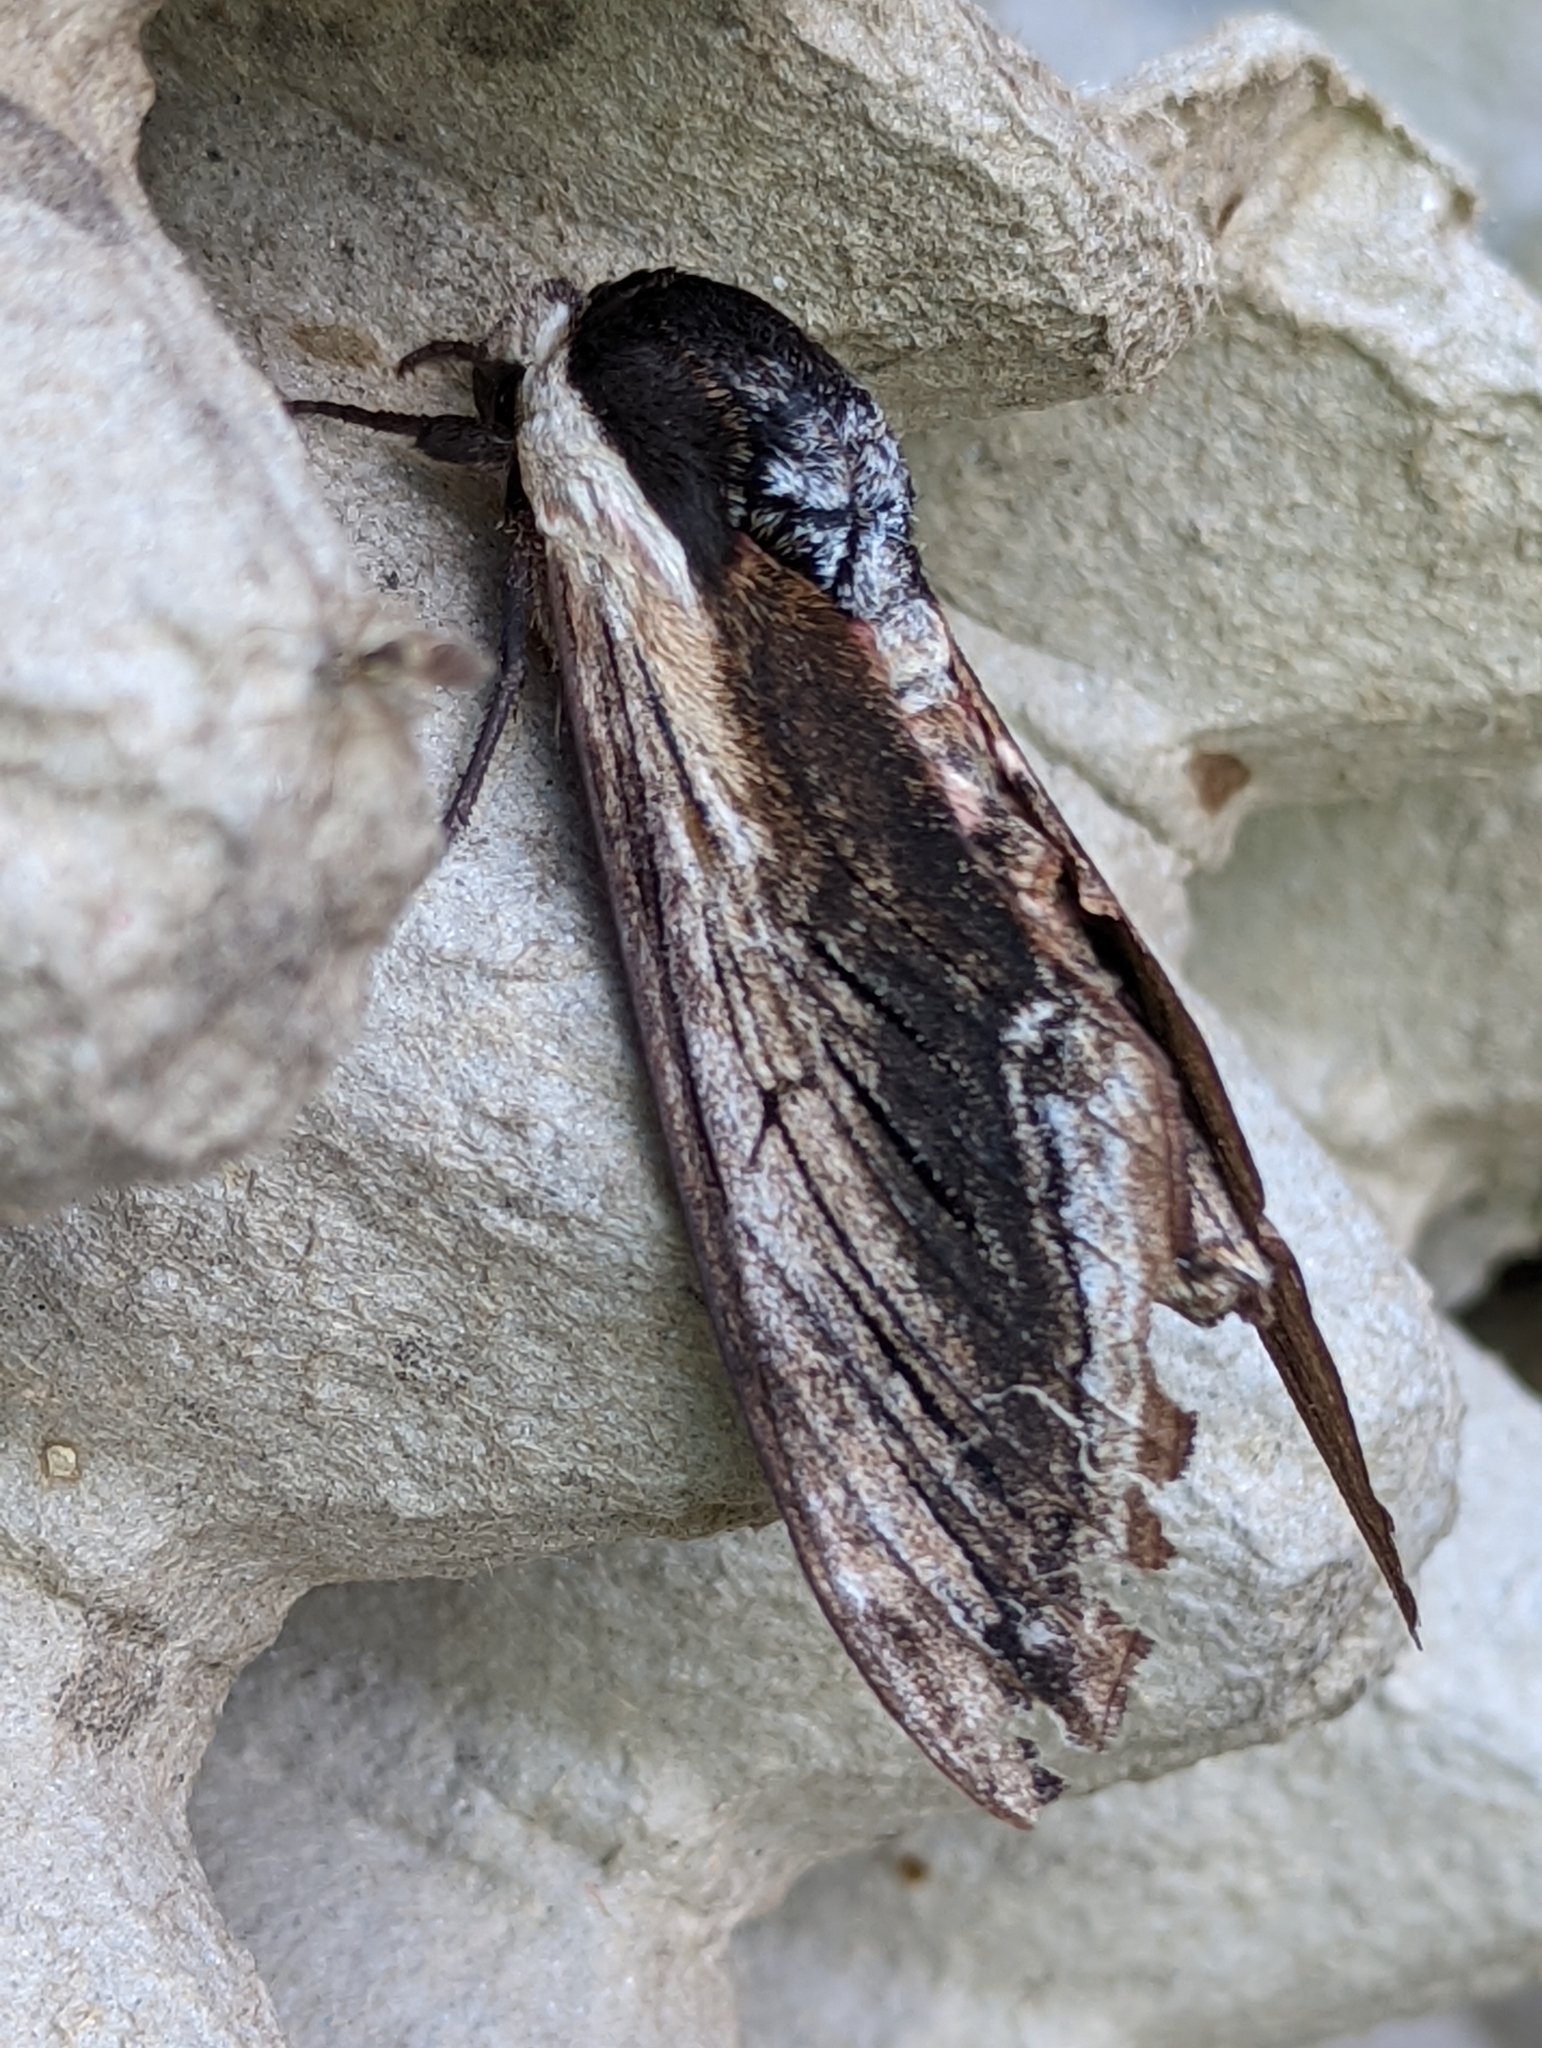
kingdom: Animalia
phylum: Arthropoda
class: Insecta
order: Lepidoptera
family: Sphingidae
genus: Sphinx
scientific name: Sphinx ligustri
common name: Privet hawk-moth
